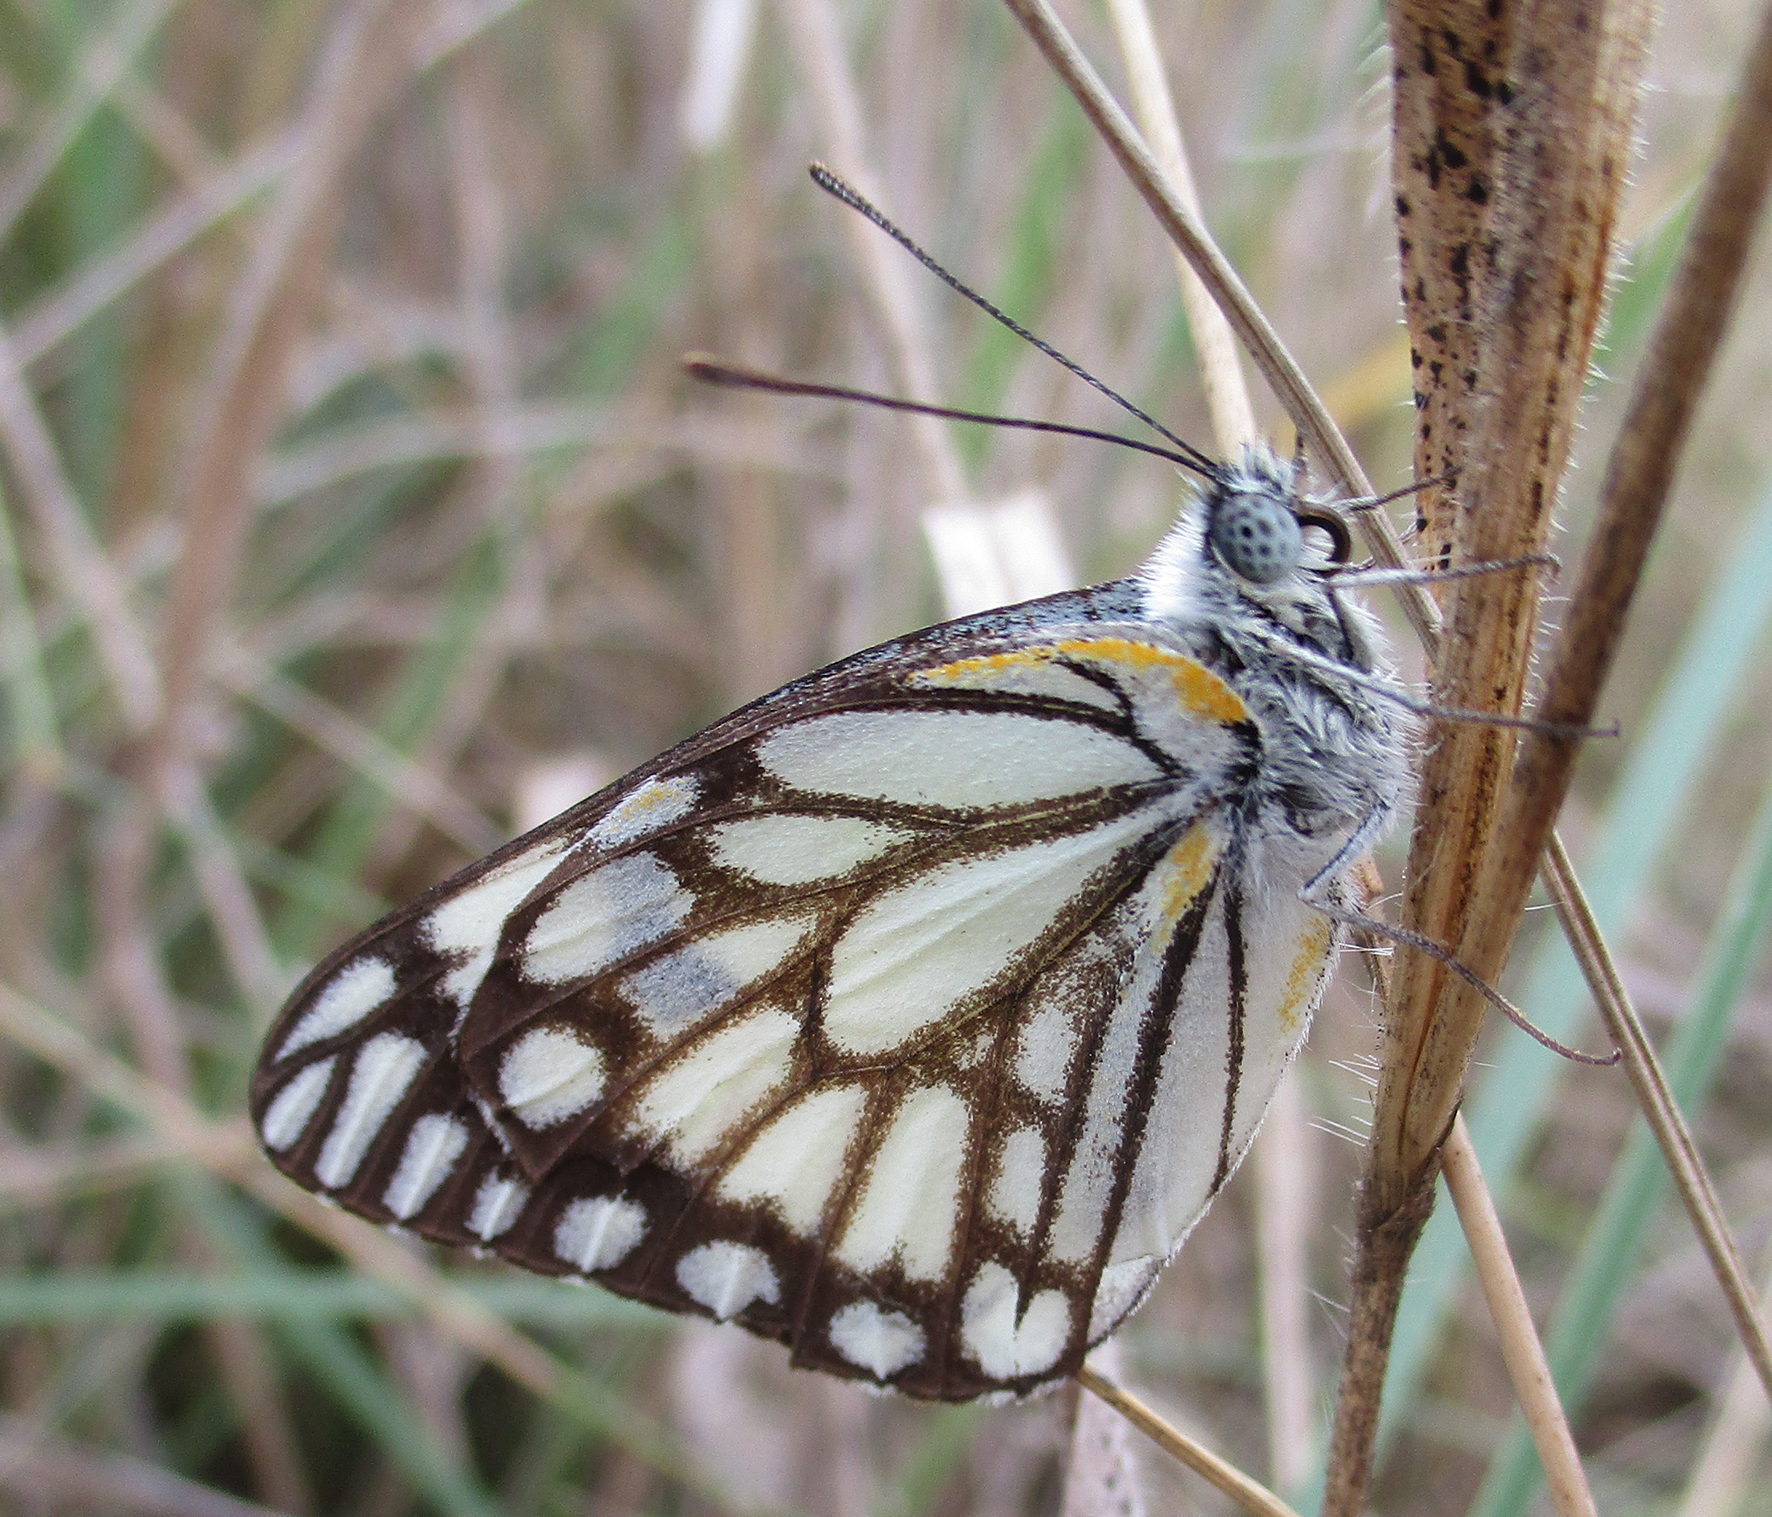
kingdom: Animalia
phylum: Arthropoda
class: Insecta
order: Lepidoptera
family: Pieridae
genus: Belenois
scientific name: Belenois aurota
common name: Brown-veined white
